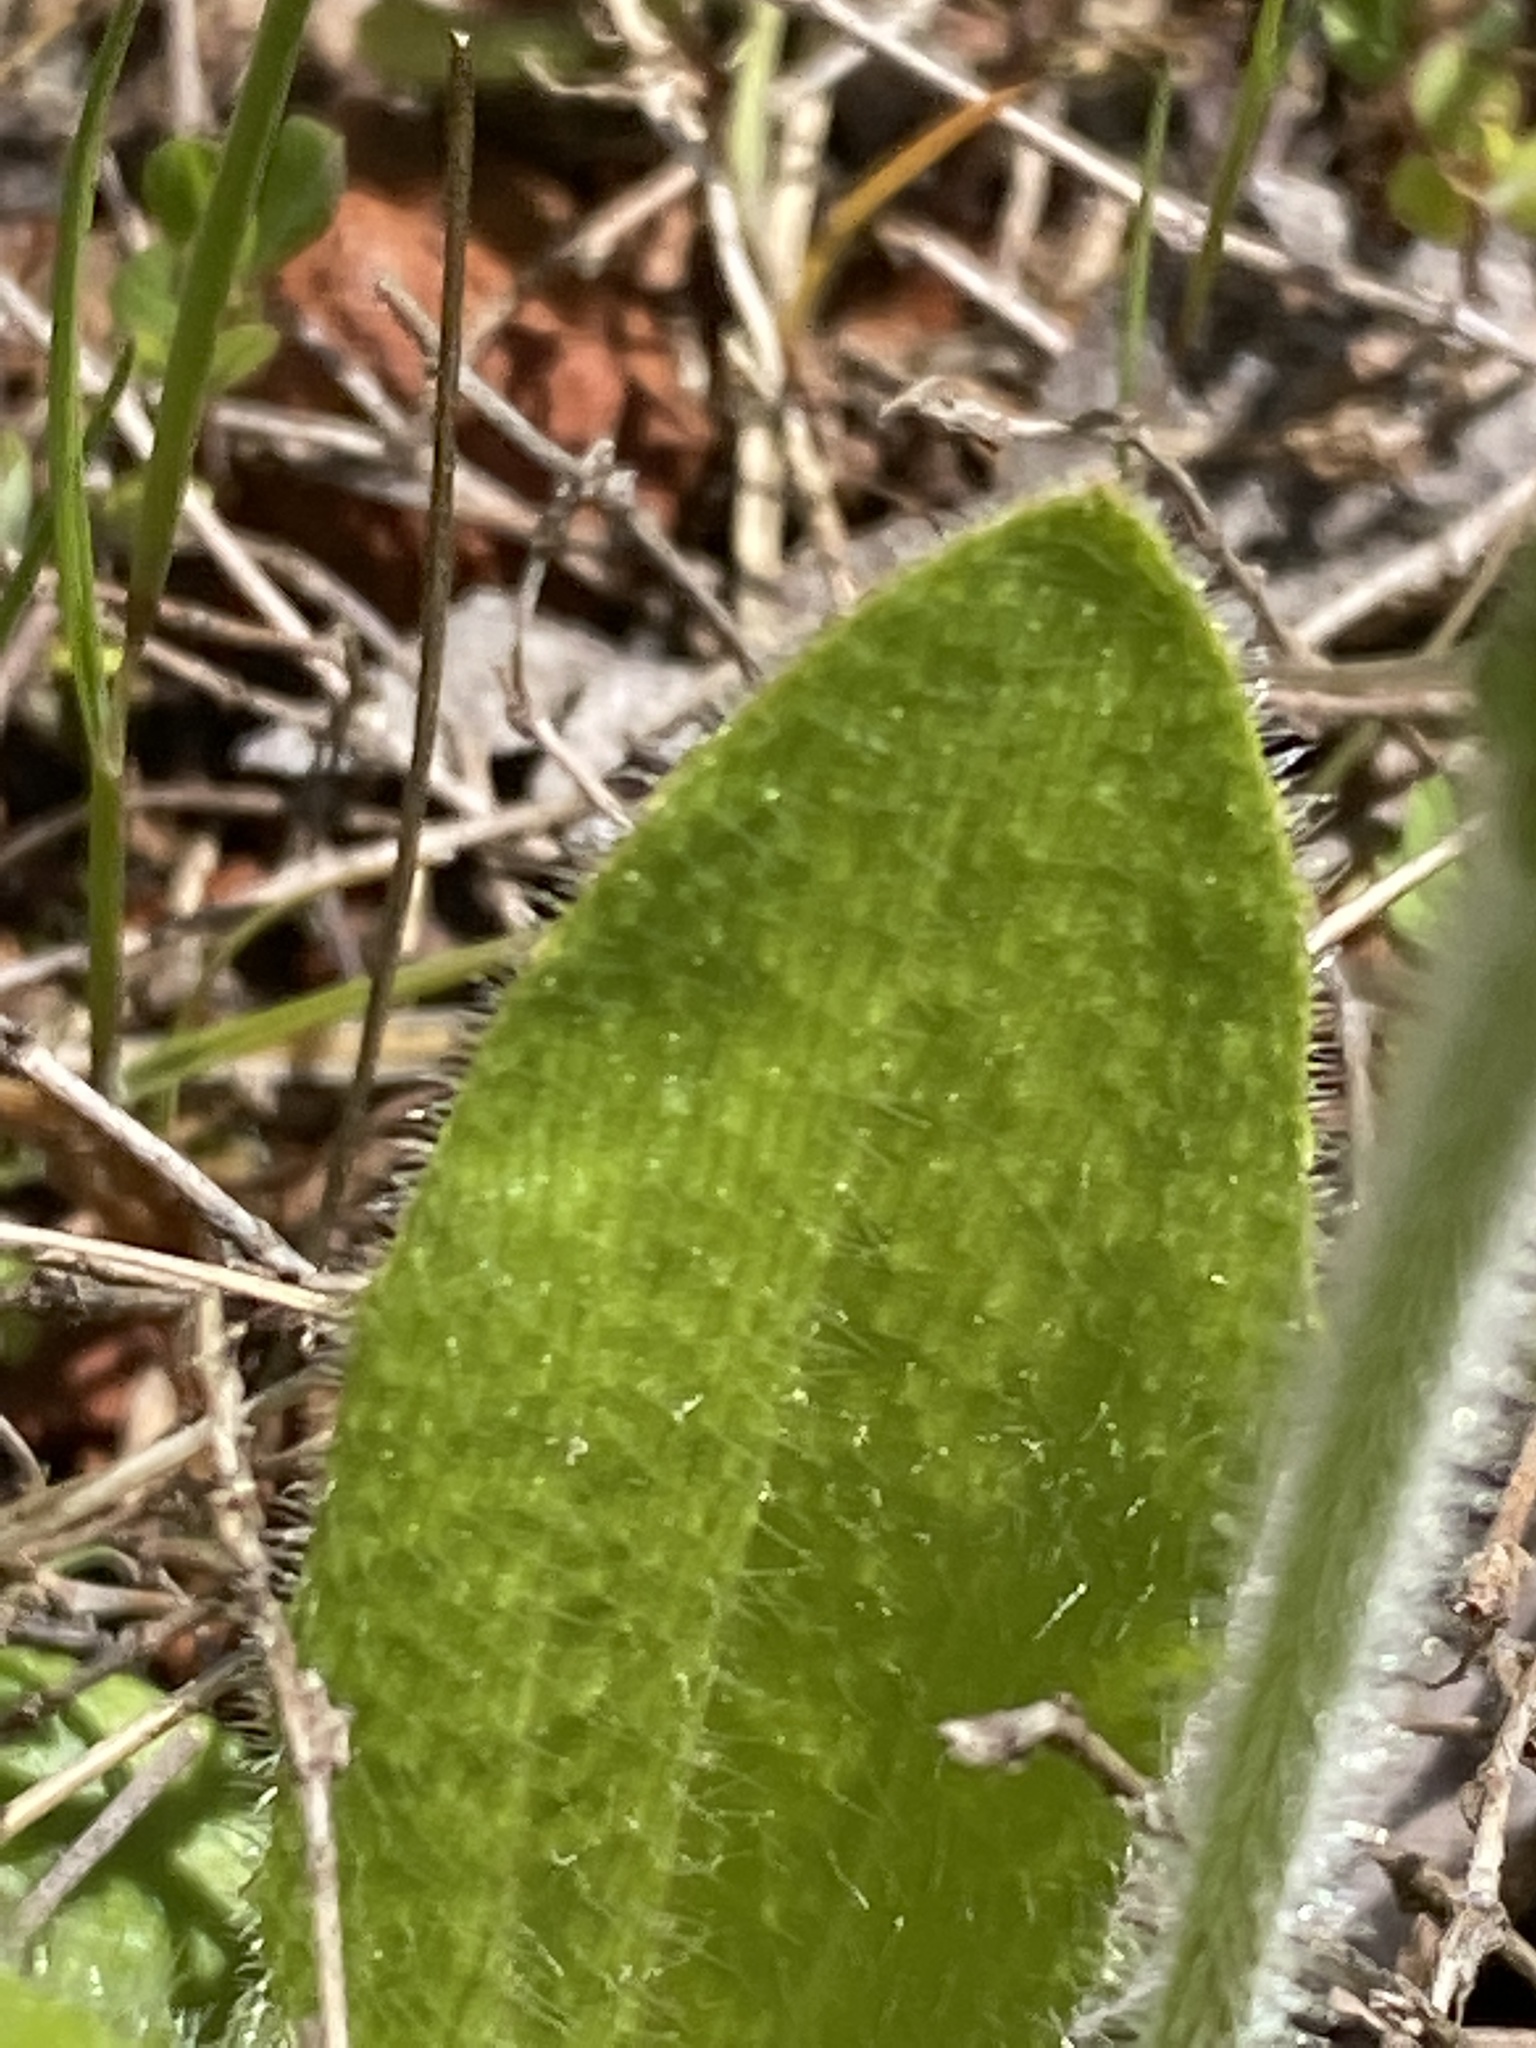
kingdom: Plantae
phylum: Tracheophyta
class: Magnoliopsida
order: Lamiales
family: Plantaginaceae
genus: Plantago
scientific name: Plantago virginica
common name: Hoary plantain
